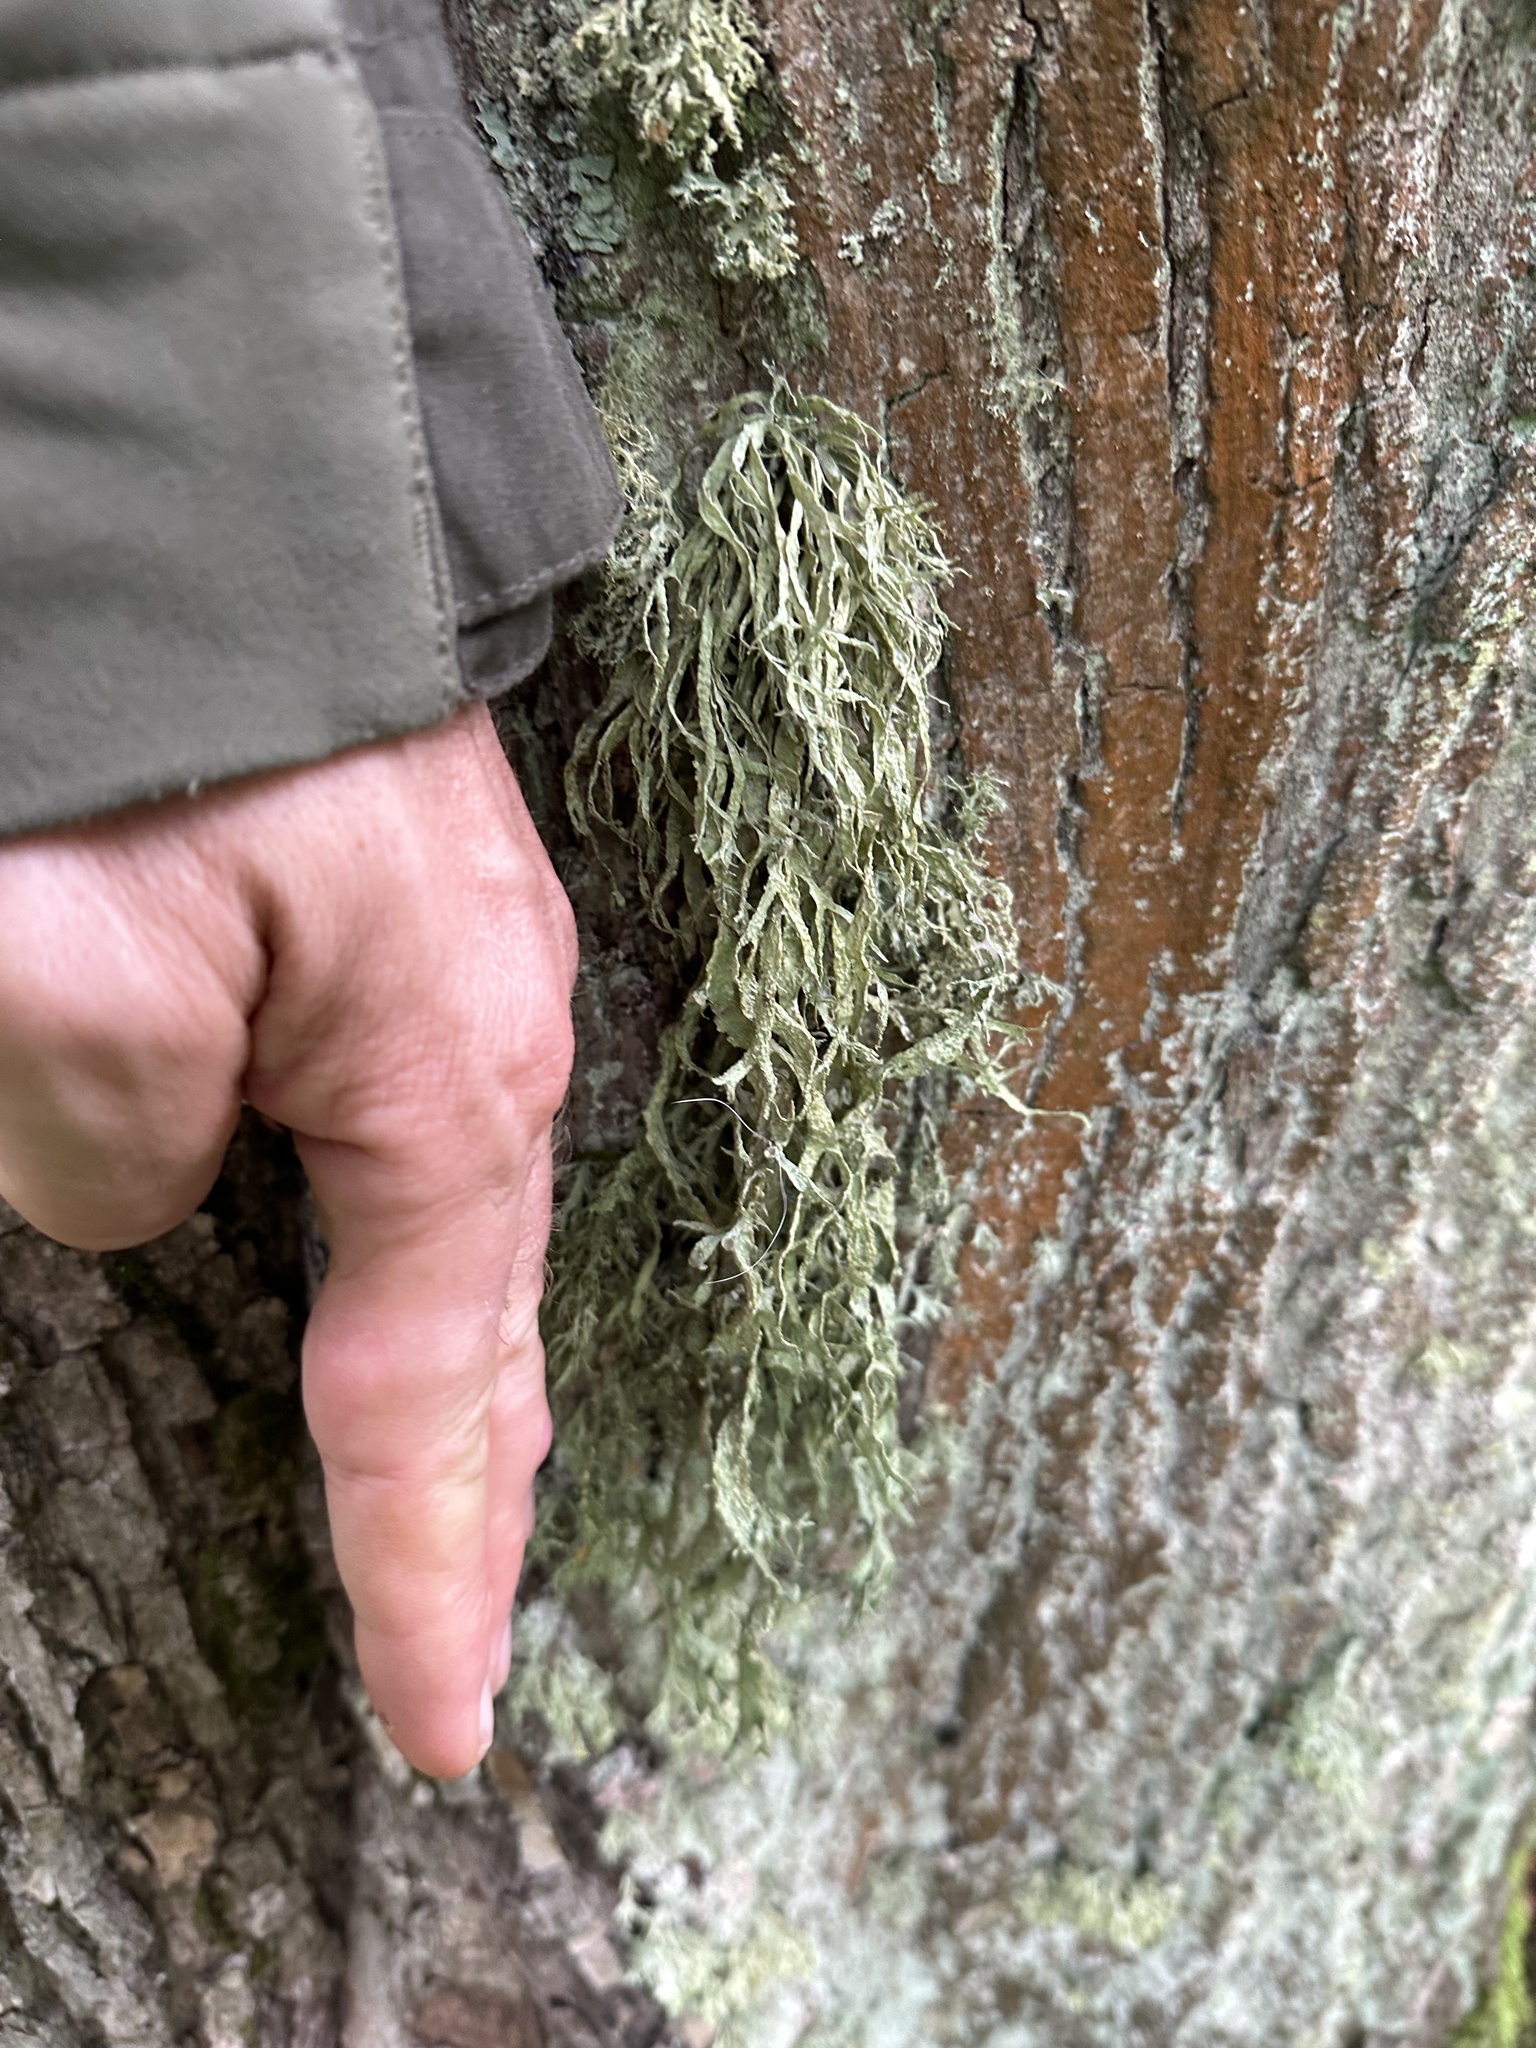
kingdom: Fungi
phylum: Ascomycota
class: Lecanoromycetes
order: Lecanorales
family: Ramalinaceae
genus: Ramalina
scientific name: Ramalina fraxinea
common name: Cartilage lichen
